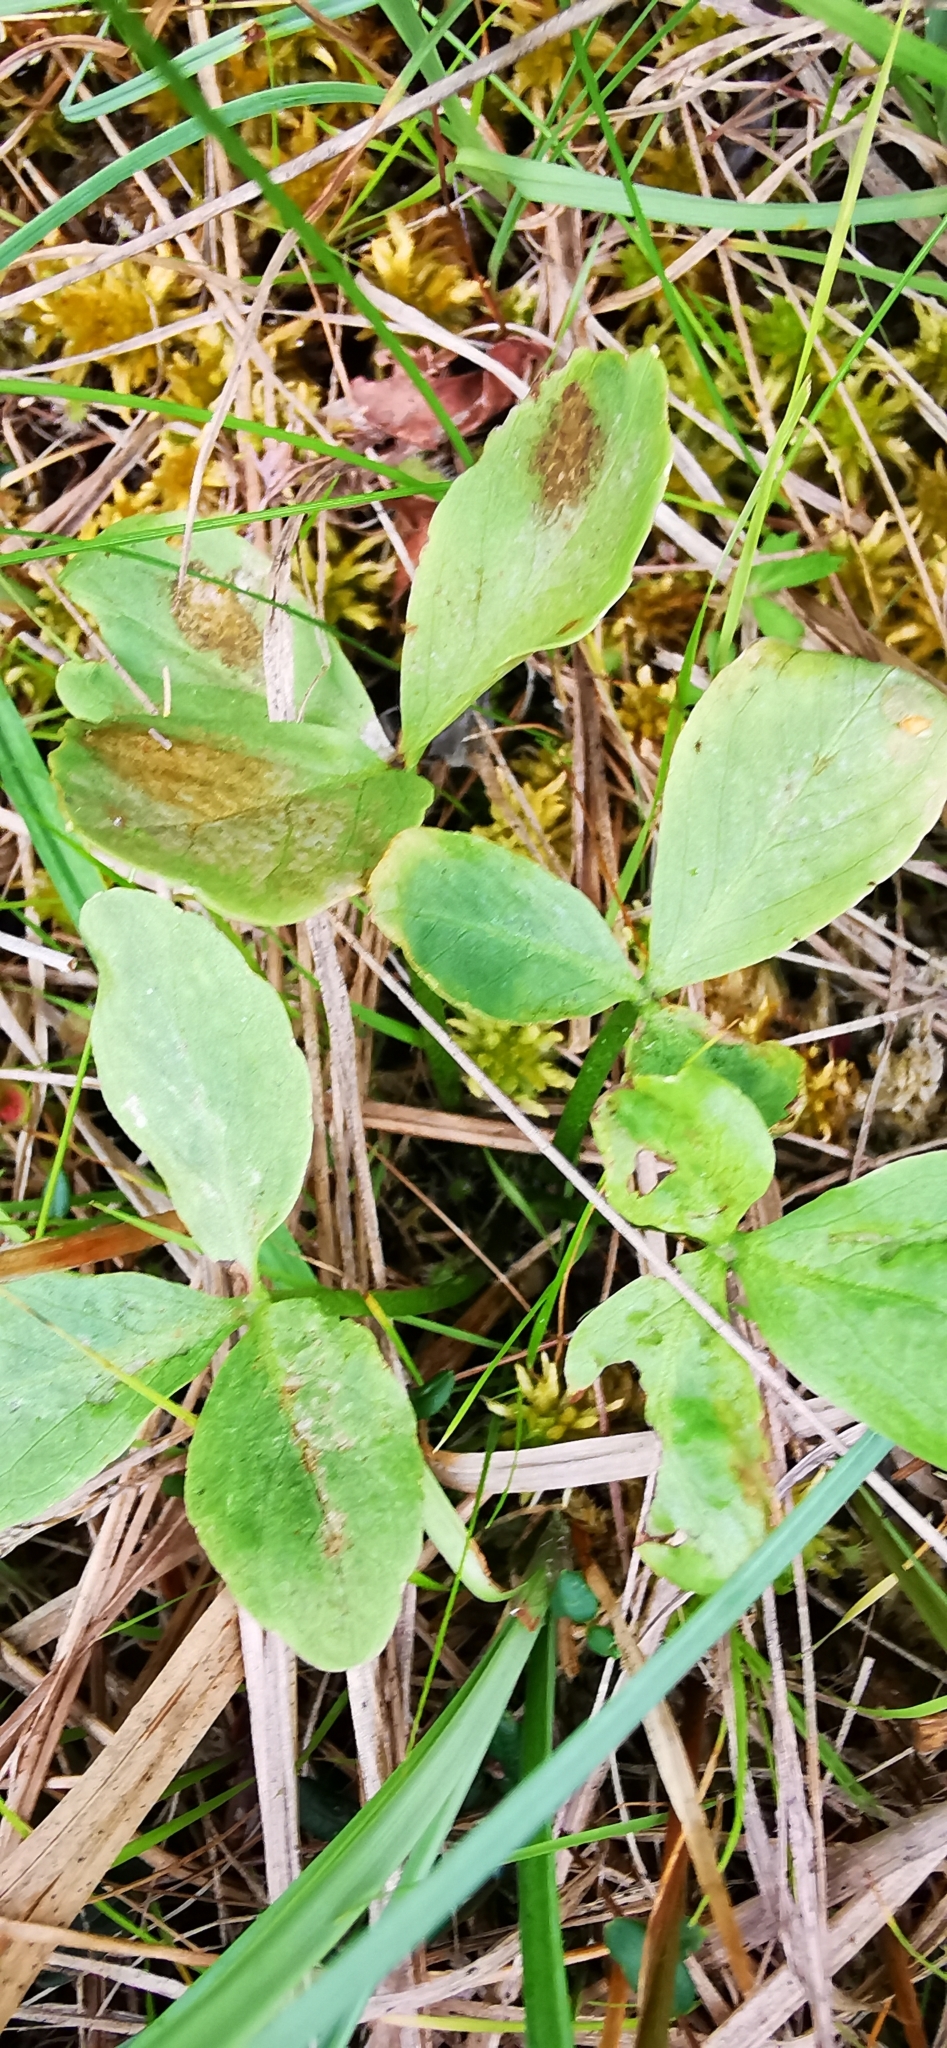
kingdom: Plantae
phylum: Tracheophyta
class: Magnoliopsida
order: Asterales
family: Menyanthaceae
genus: Menyanthes
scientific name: Menyanthes trifoliata
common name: Bogbean
